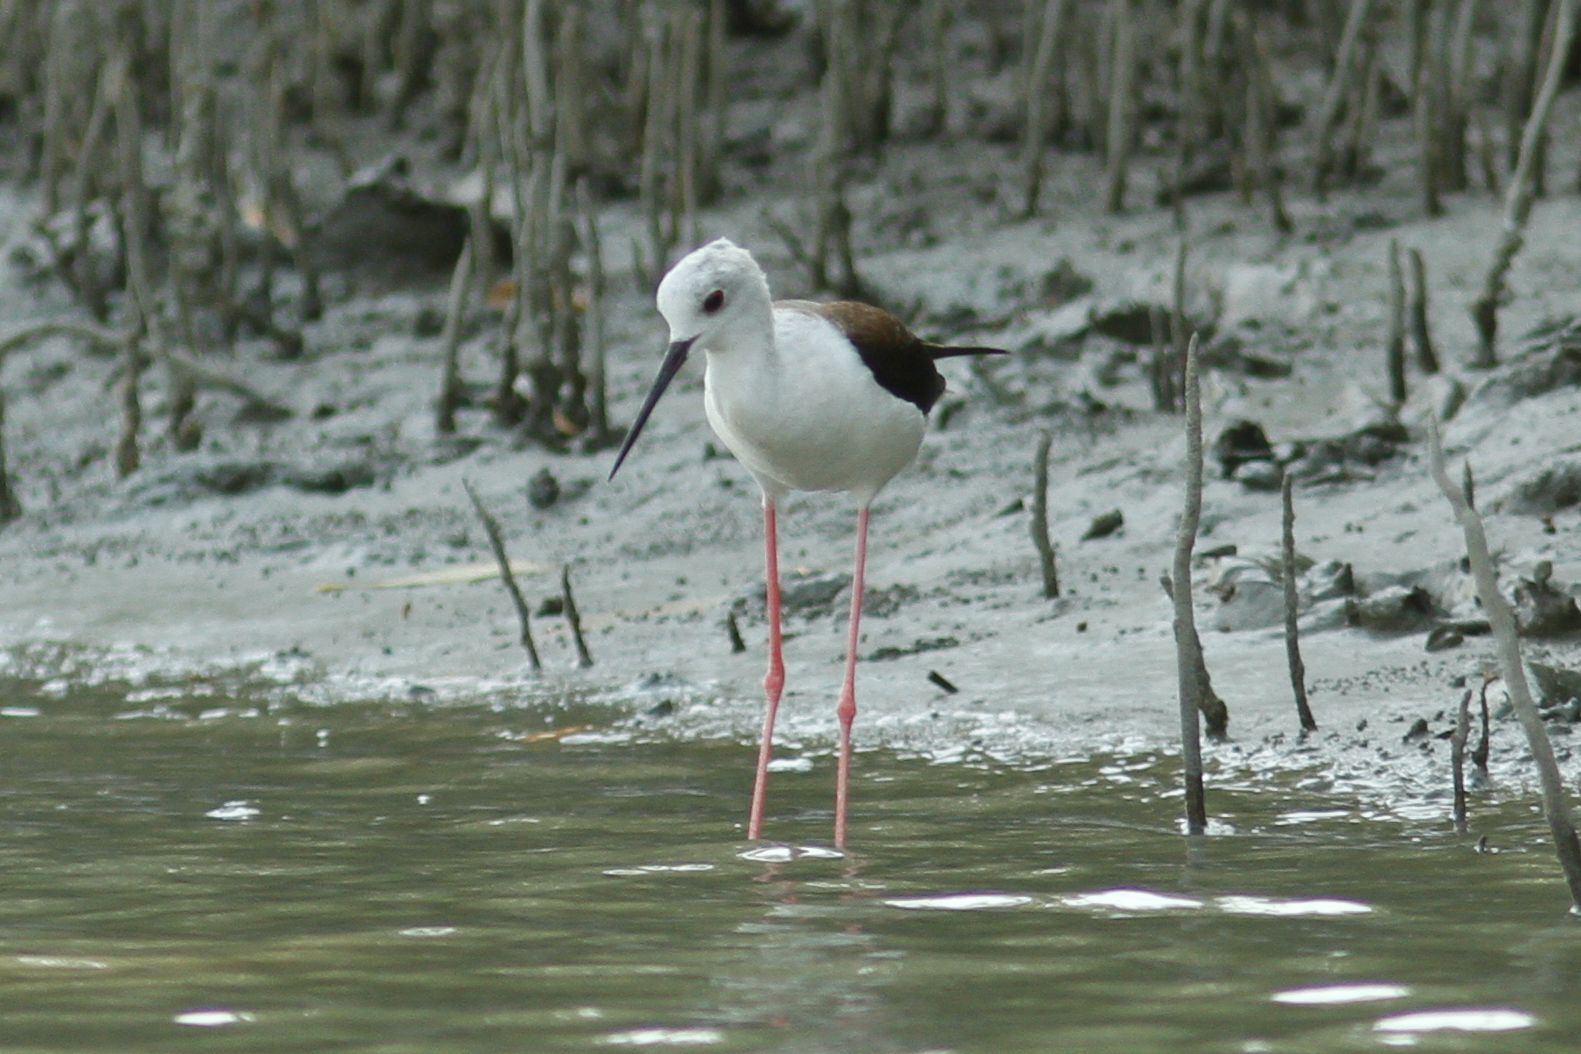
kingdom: Animalia
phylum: Chordata
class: Aves
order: Charadriiformes
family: Recurvirostridae
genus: Himantopus
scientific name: Himantopus himantopus
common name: Black-winged stilt
